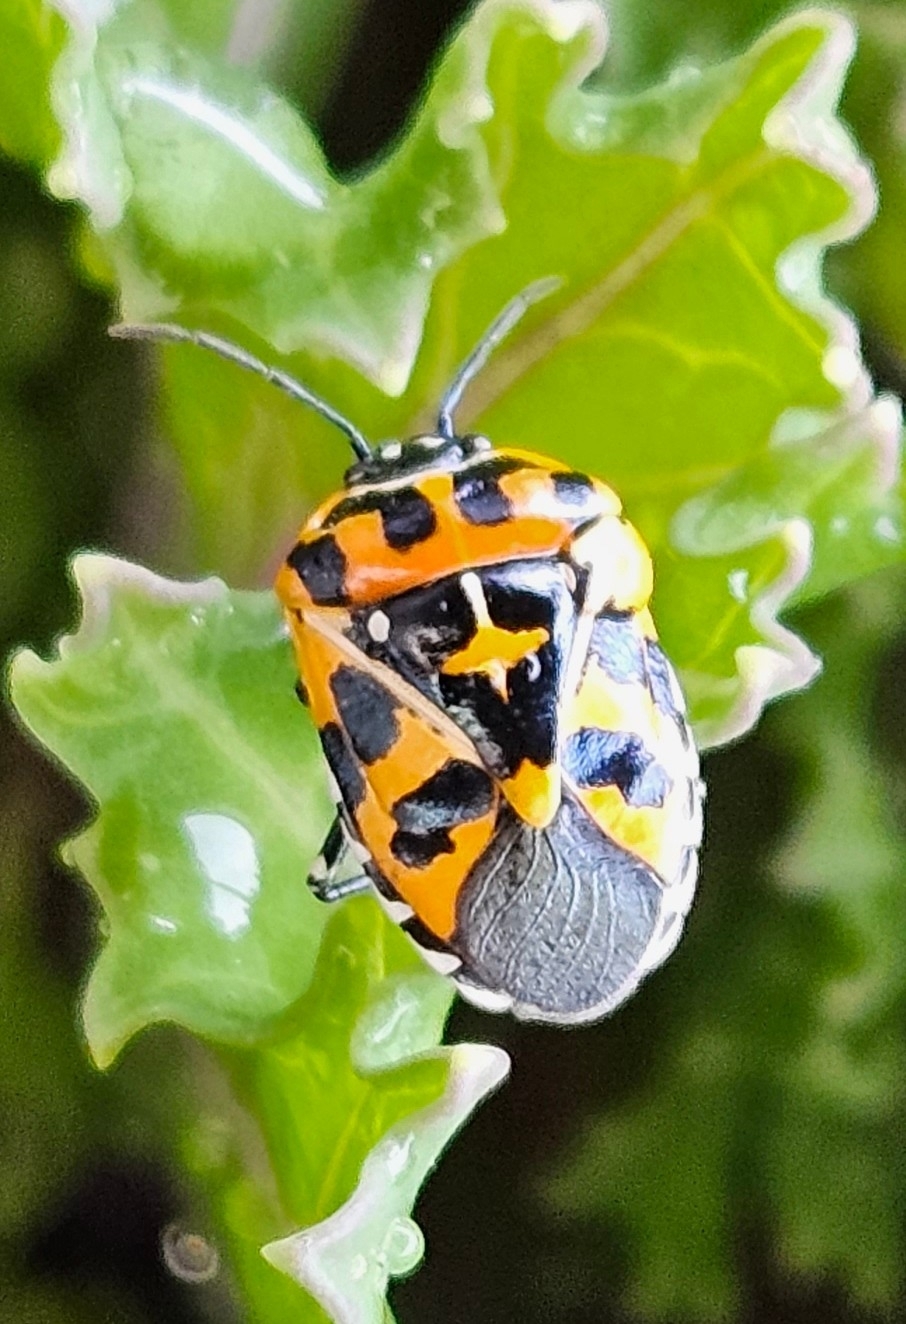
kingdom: Animalia
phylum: Arthropoda
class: Insecta
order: Hemiptera
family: Pentatomidae
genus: Murgantia
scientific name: Murgantia histrionica
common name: Harlequin bug
